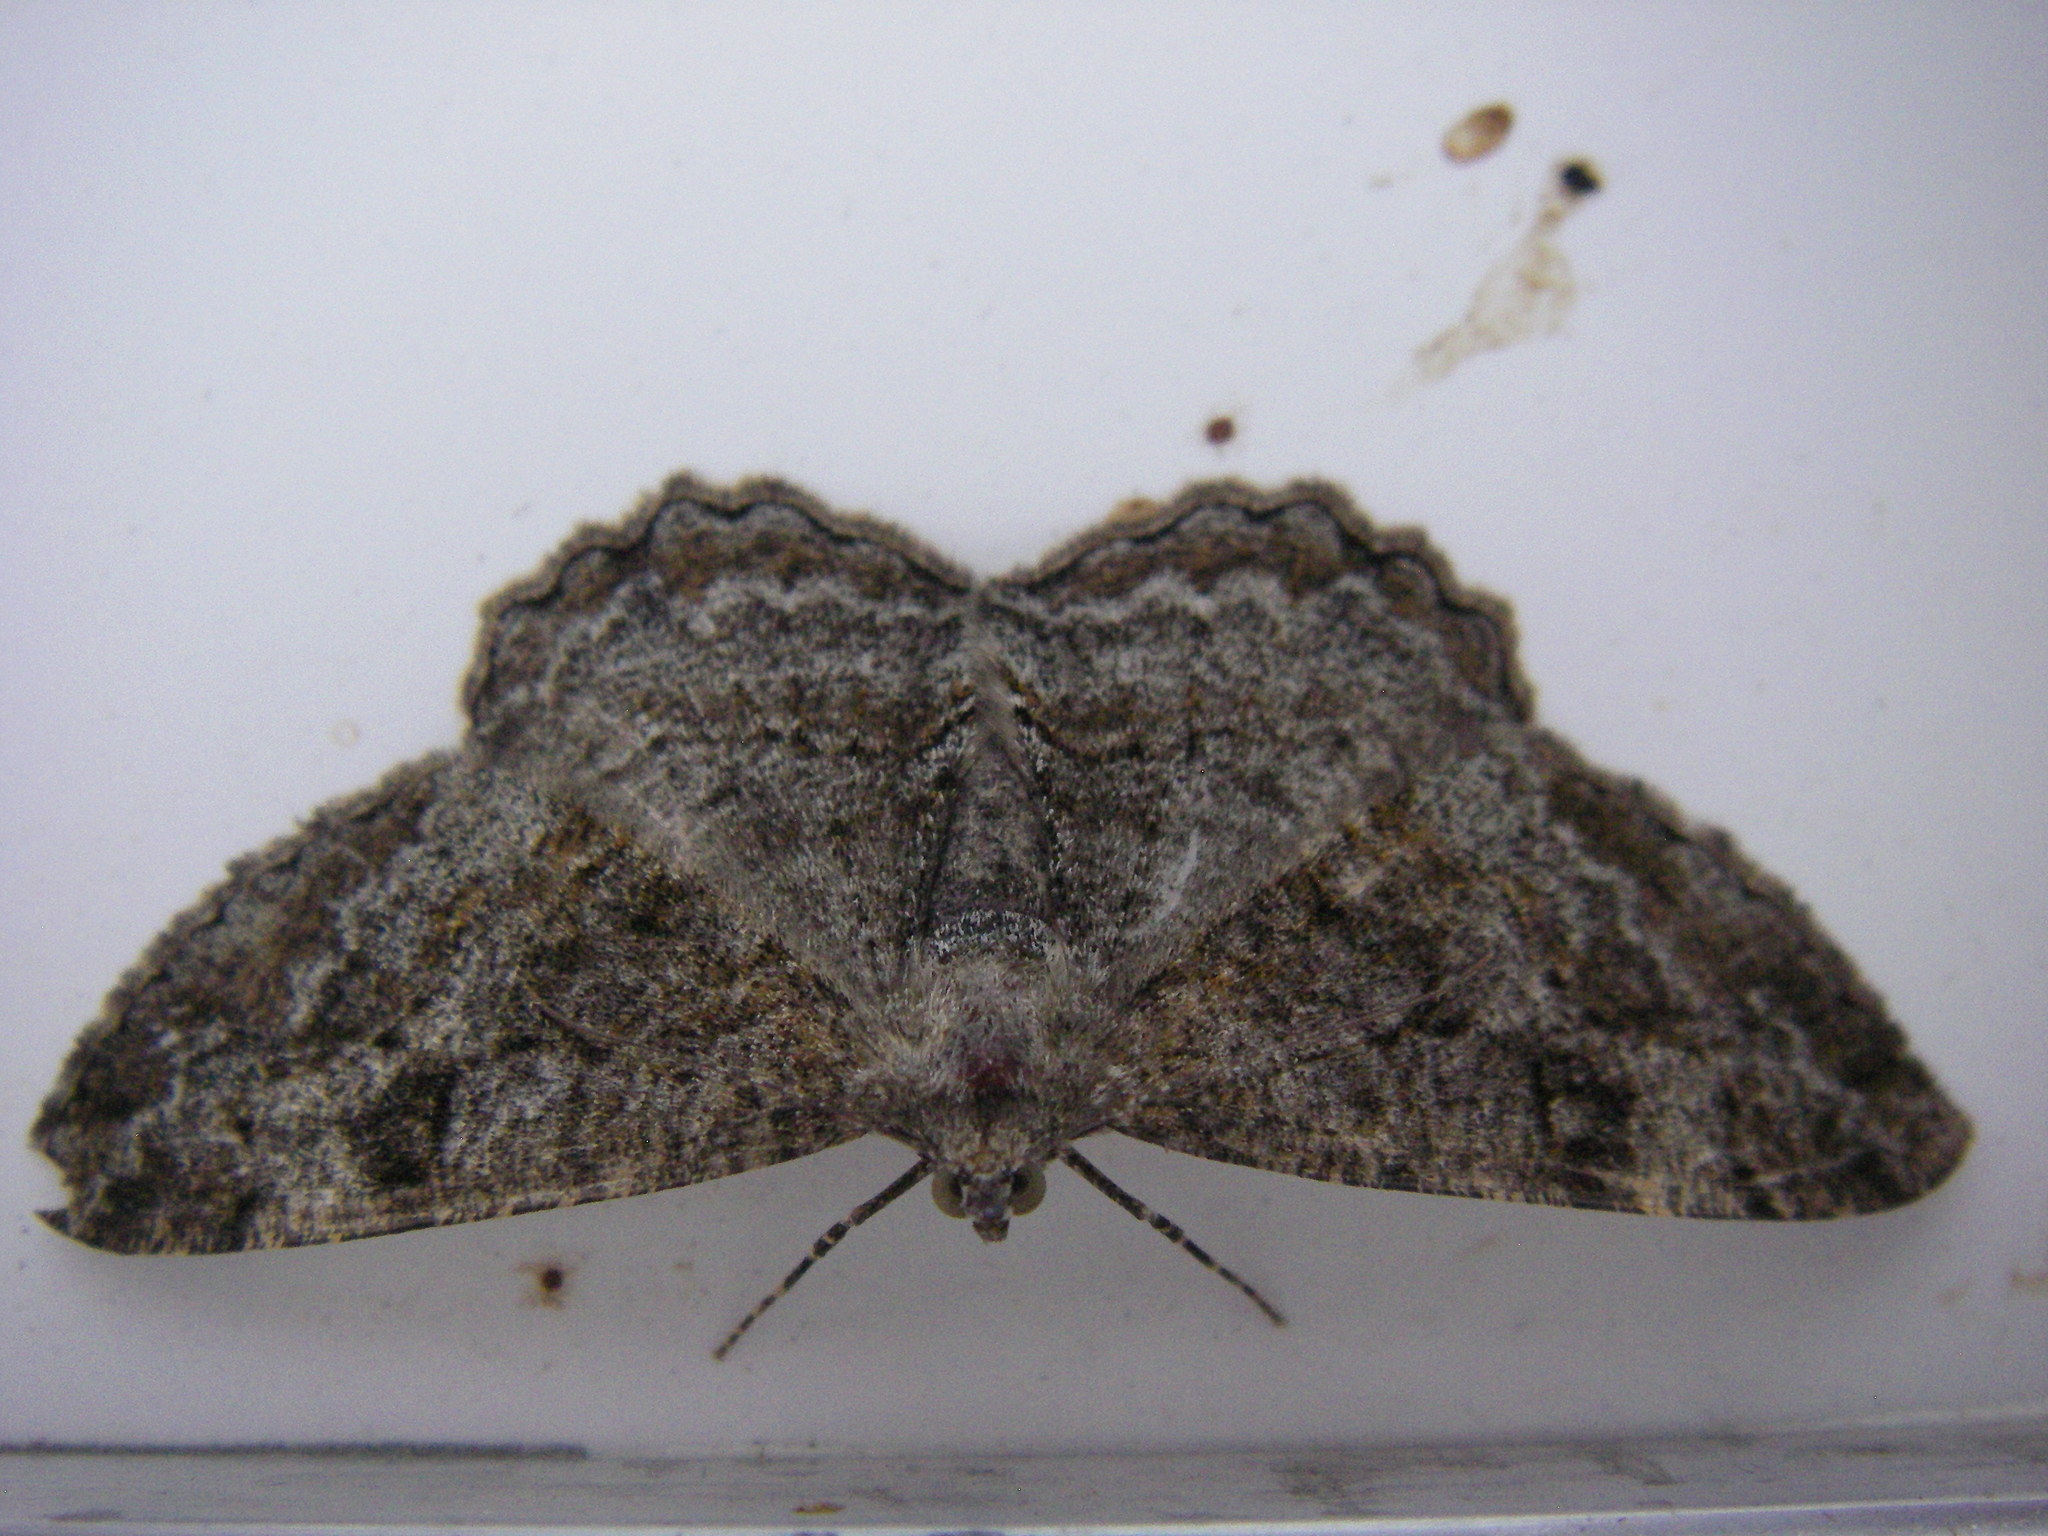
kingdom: Animalia
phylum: Arthropoda
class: Insecta
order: Lepidoptera
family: Geometridae
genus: Alcis
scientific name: Alcis repandata
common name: Mottled beauty
